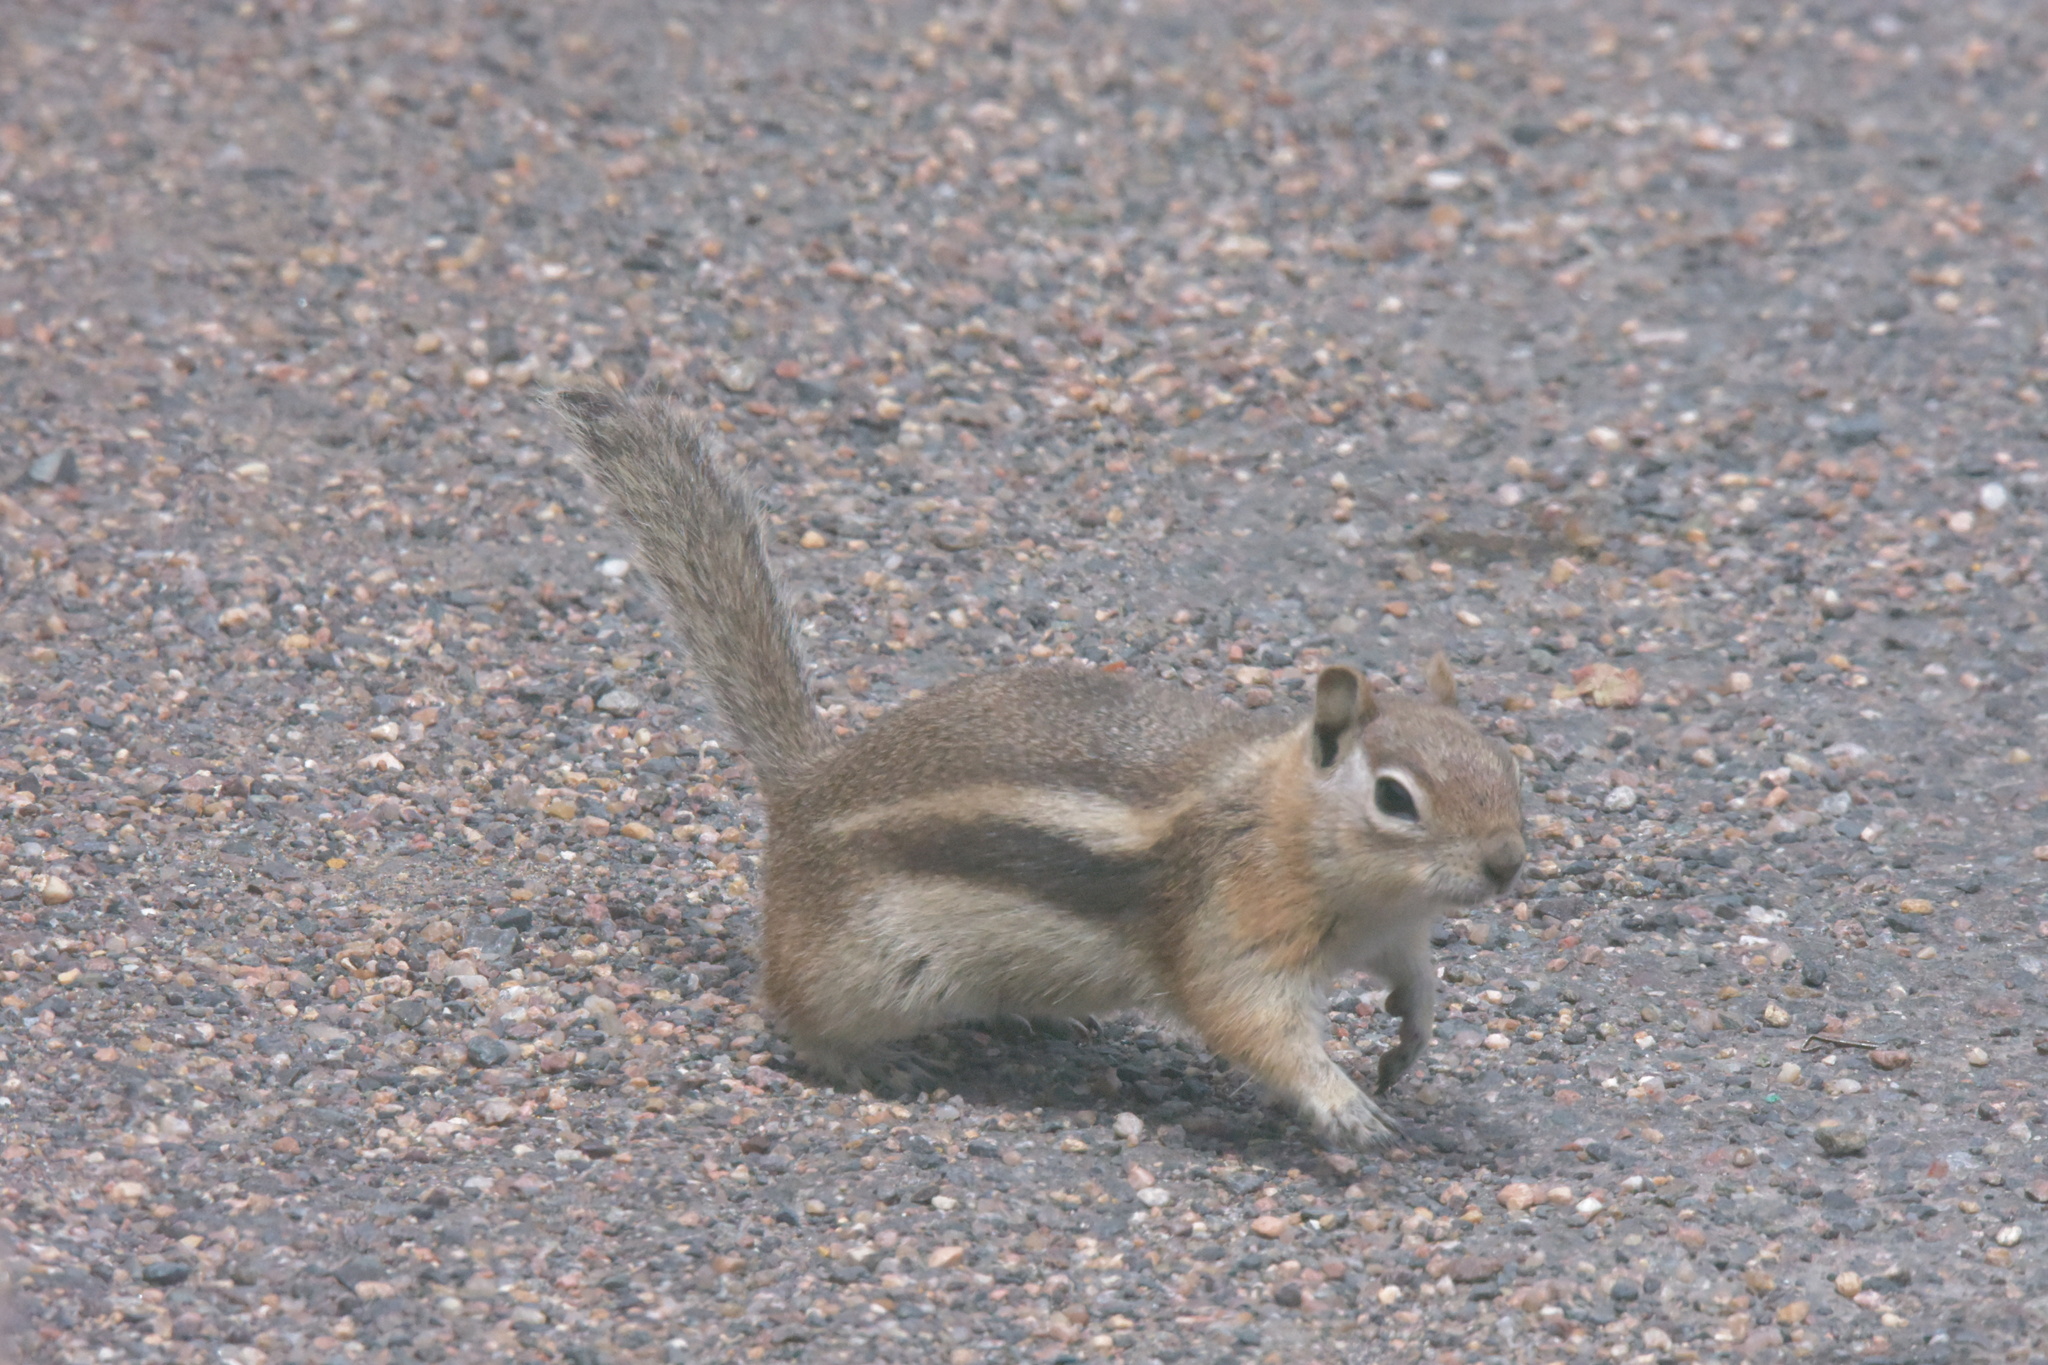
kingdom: Animalia
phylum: Chordata
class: Mammalia
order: Rodentia
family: Sciuridae
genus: Callospermophilus
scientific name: Callospermophilus lateralis
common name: Golden-mantled ground squirrel
